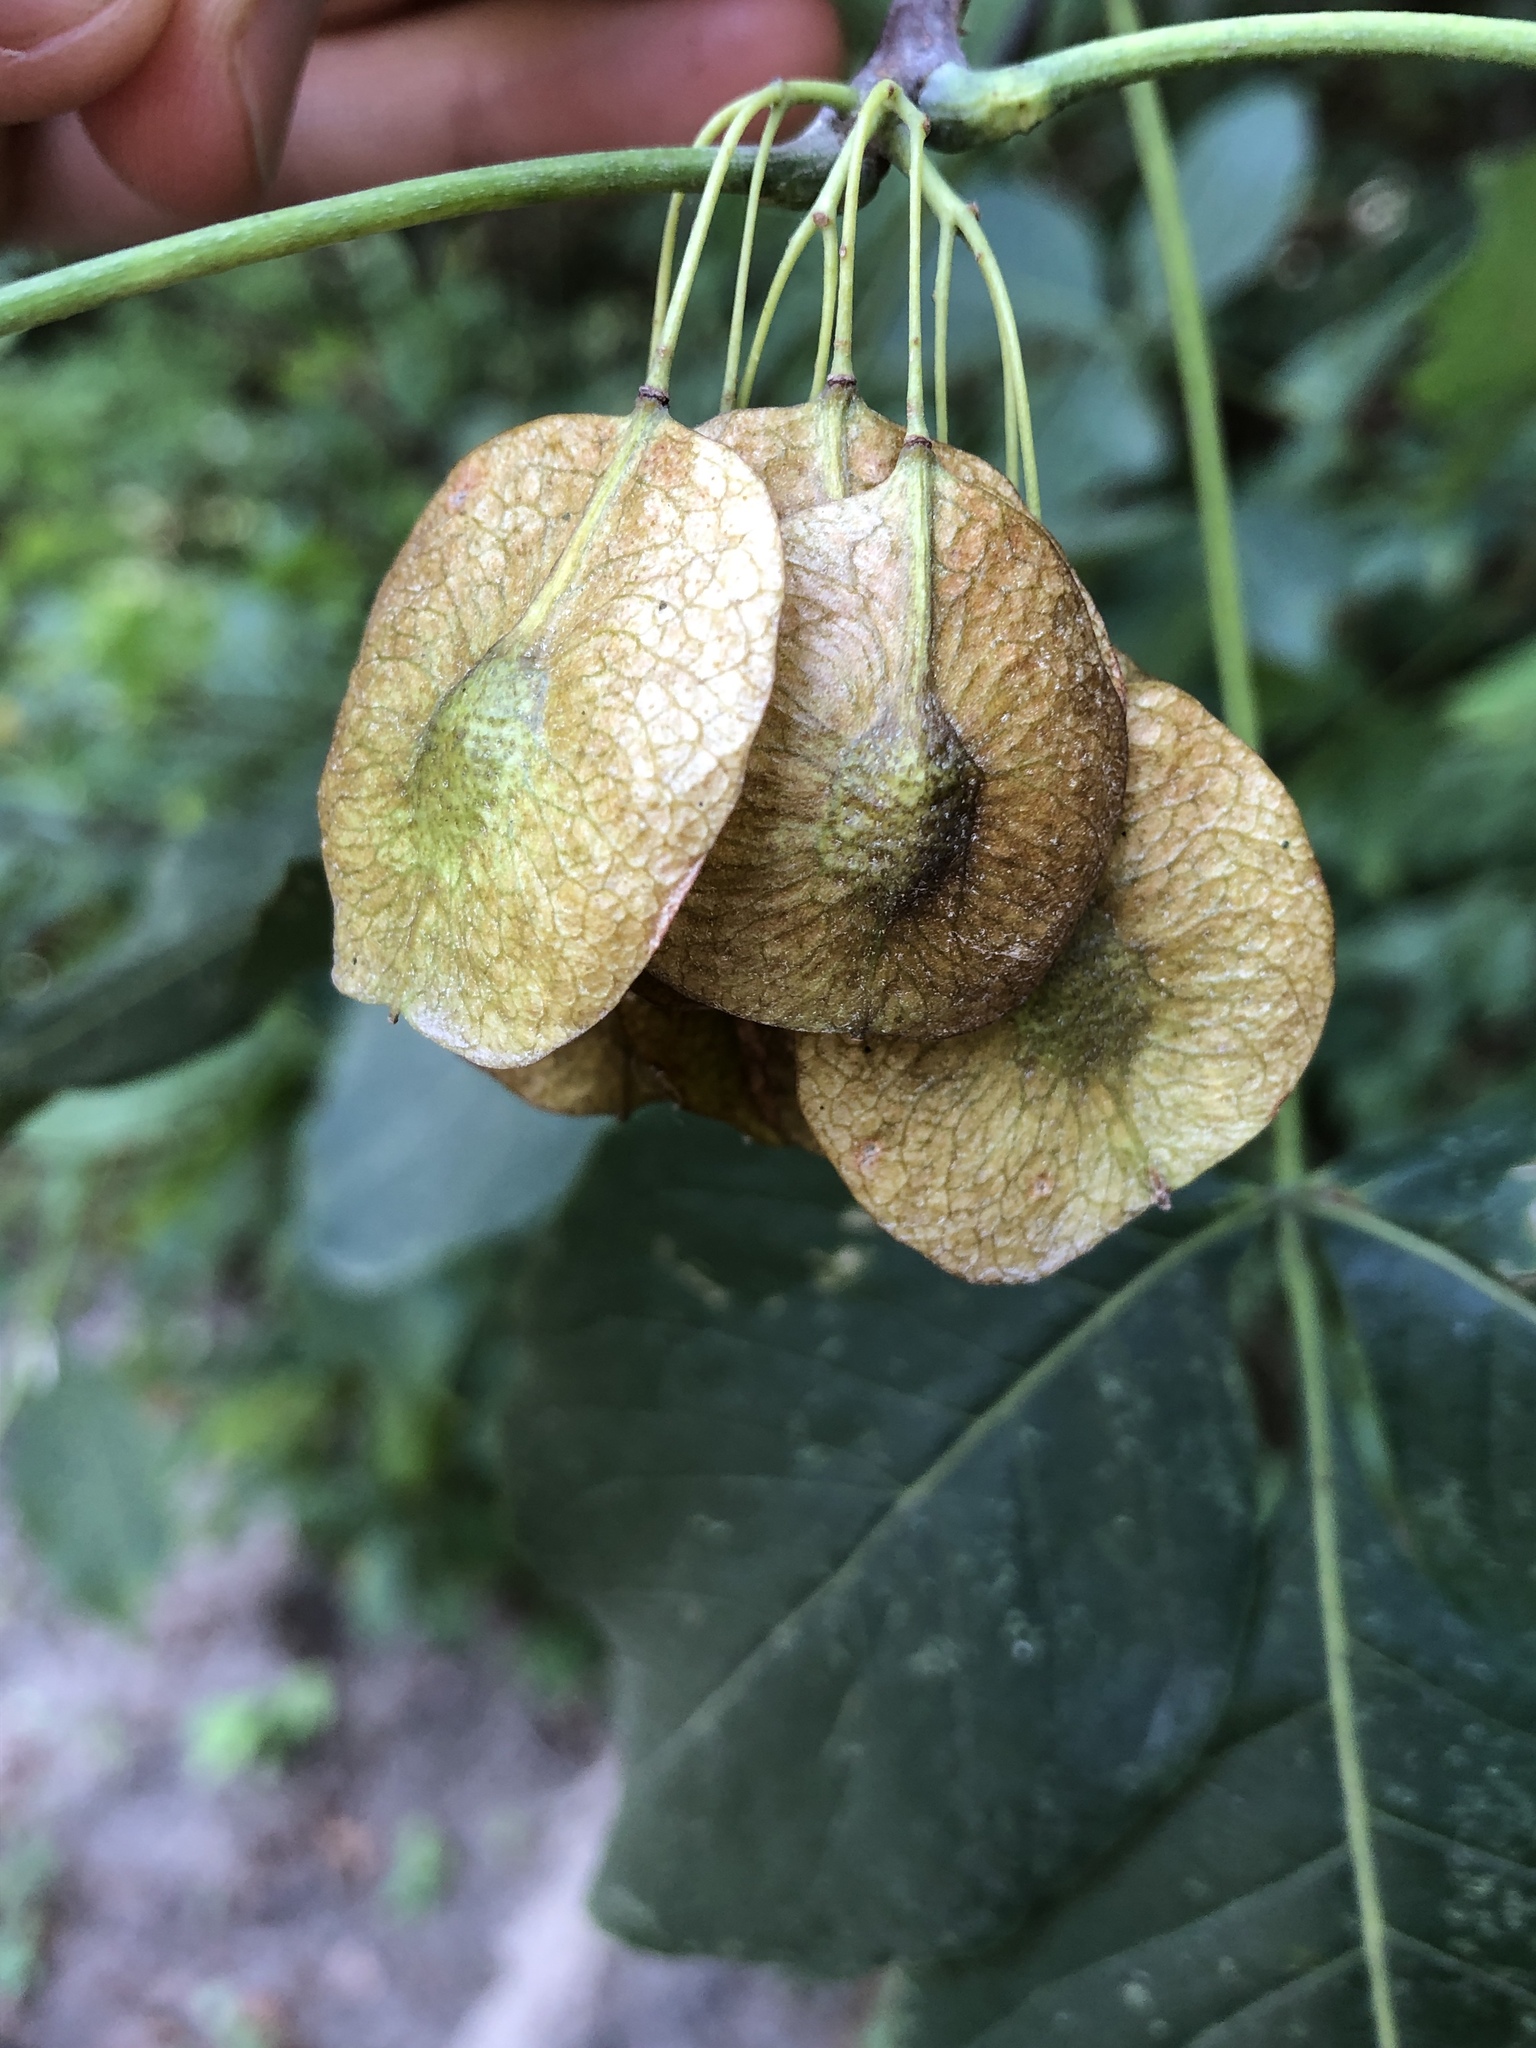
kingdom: Plantae
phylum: Tracheophyta
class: Magnoliopsida
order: Sapindales
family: Rutaceae
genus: Ptelea
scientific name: Ptelea trifoliata
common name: Common hop-tree
